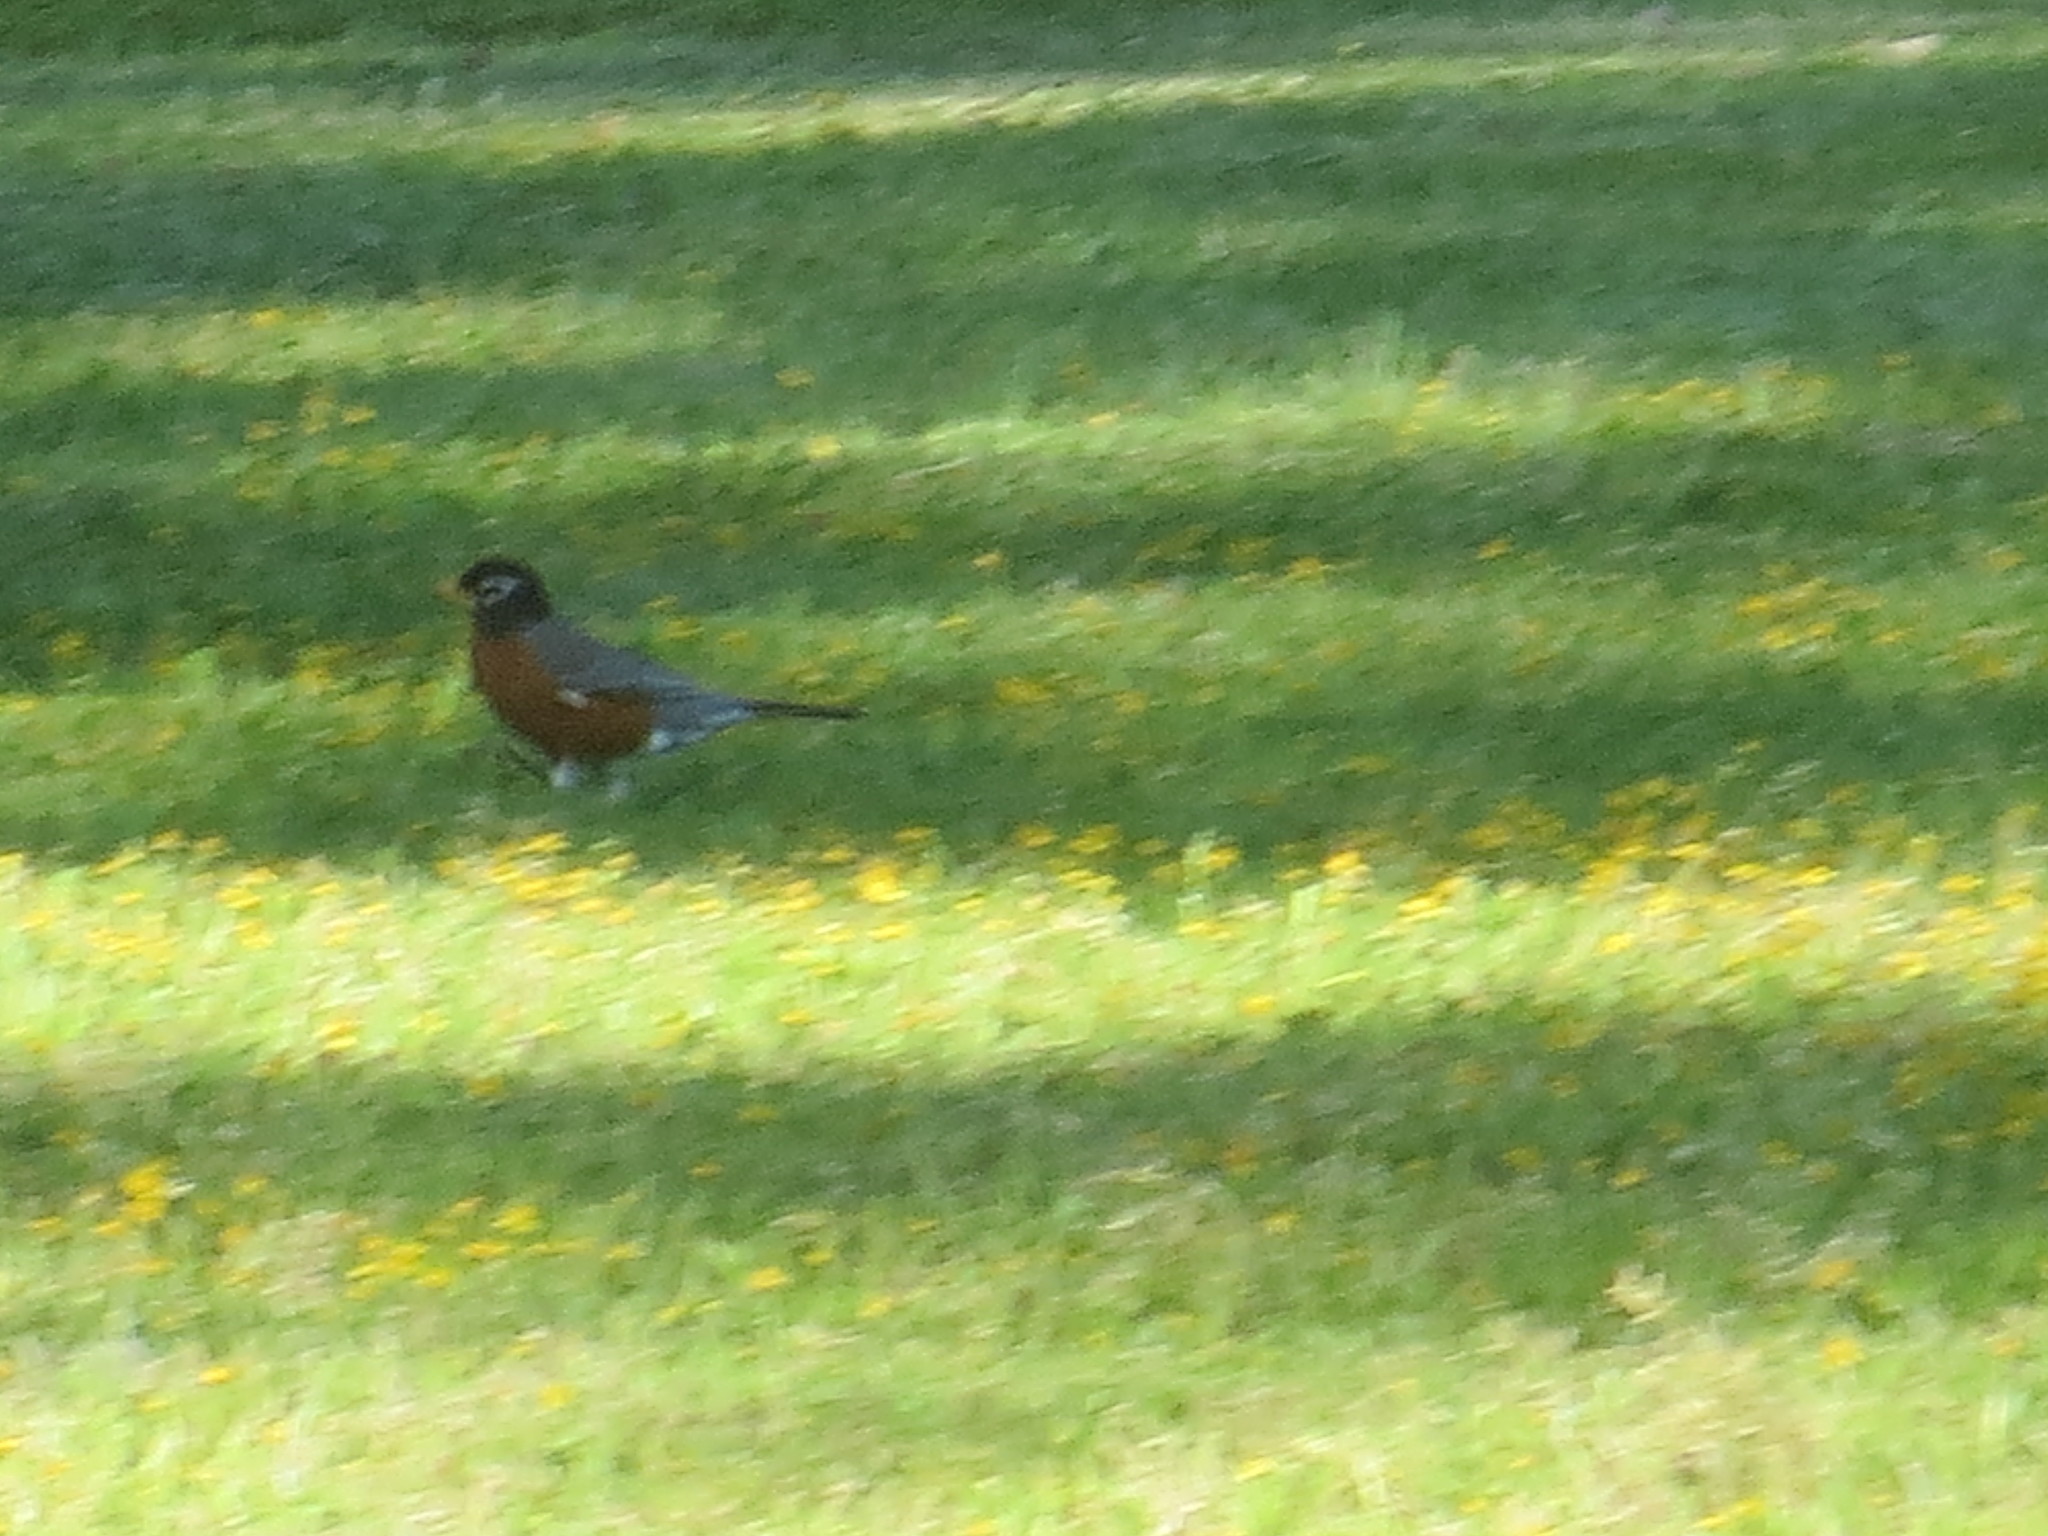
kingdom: Animalia
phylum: Chordata
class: Aves
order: Passeriformes
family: Turdidae
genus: Turdus
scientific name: Turdus migratorius
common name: American robin
